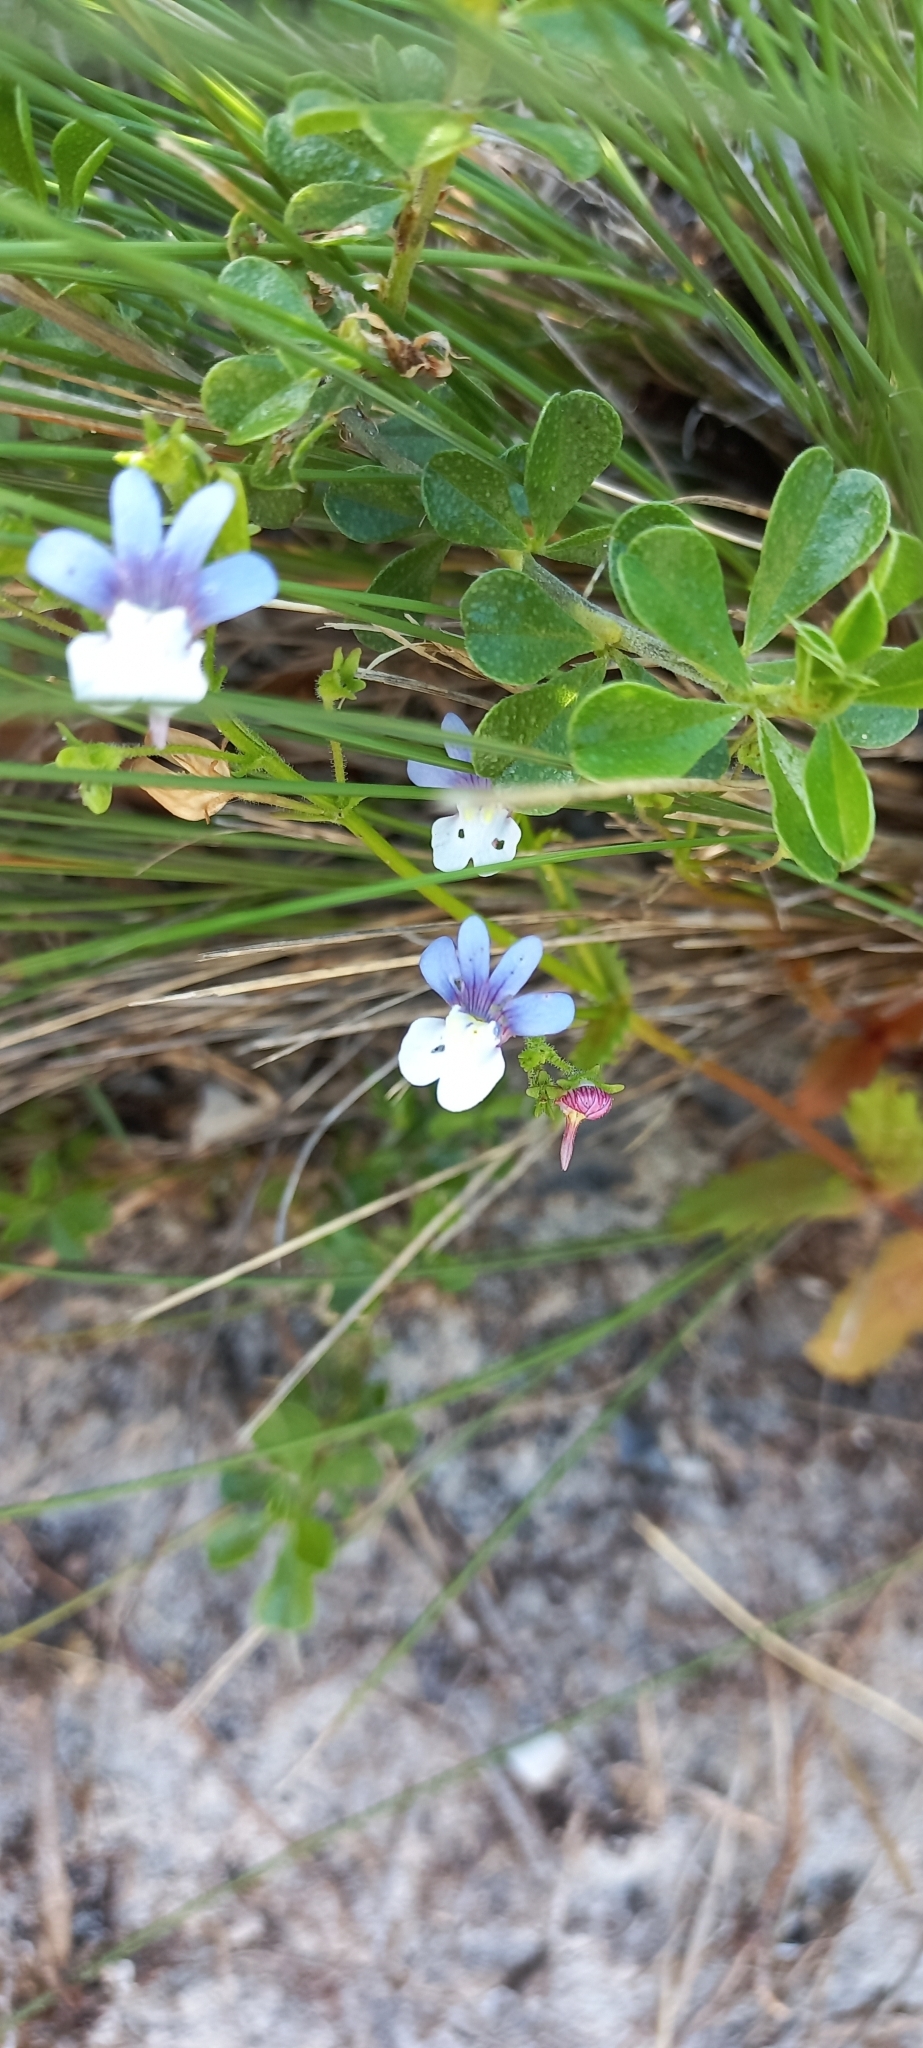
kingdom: Plantae
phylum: Tracheophyta
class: Magnoliopsida
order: Lamiales
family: Scrophulariaceae
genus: Nemesia
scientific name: Nemesia affinis
